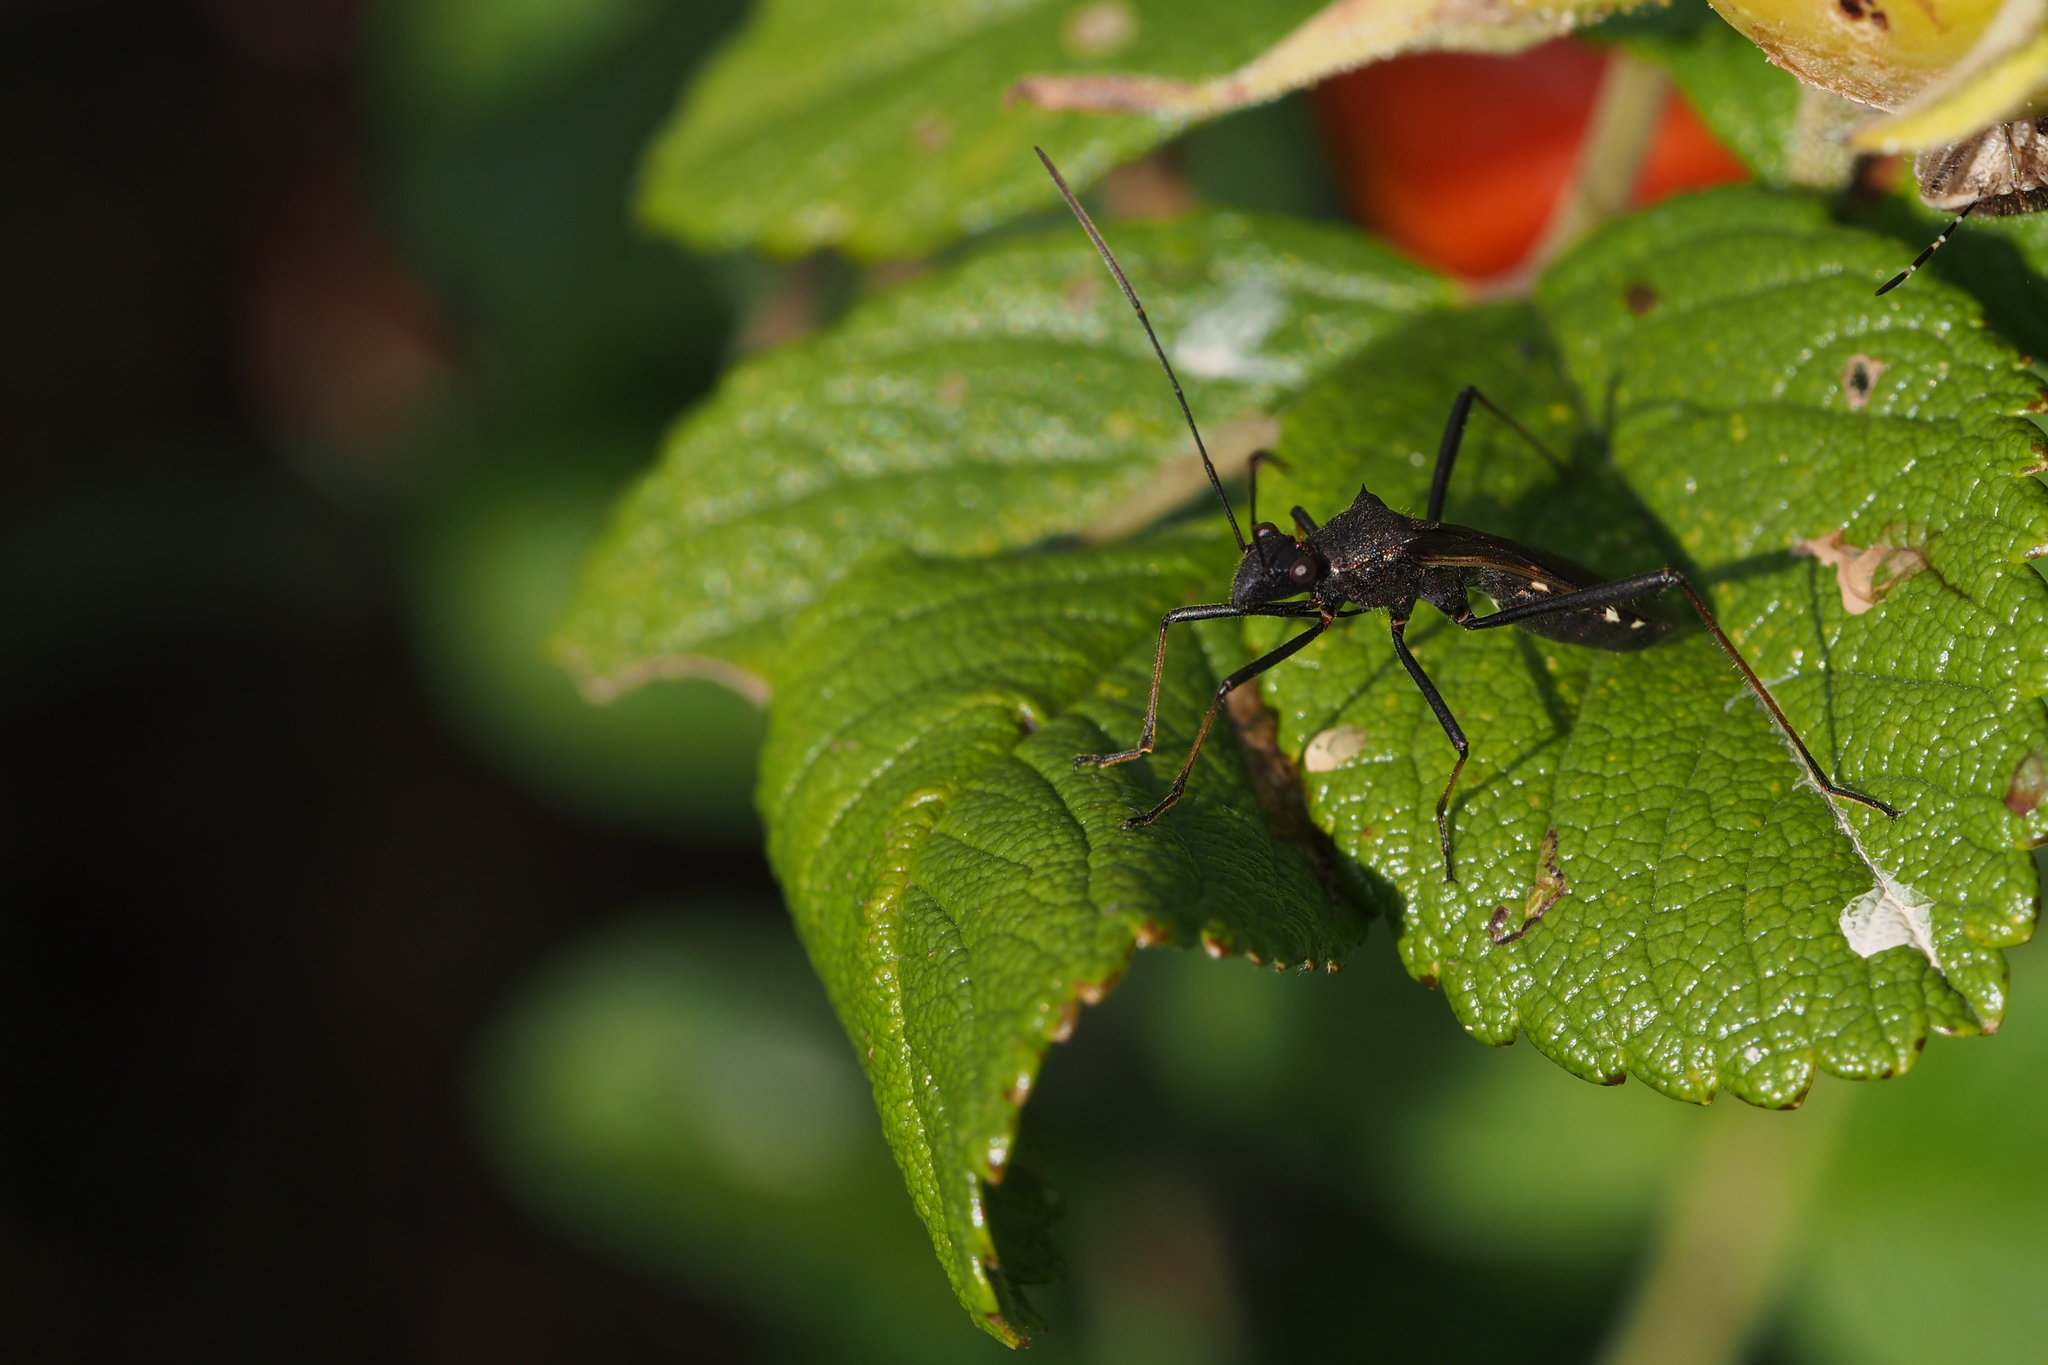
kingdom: Animalia
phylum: Arthropoda
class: Insecta
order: Hemiptera
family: Alydidae
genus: Megalotomus
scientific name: Megalotomus costalis
